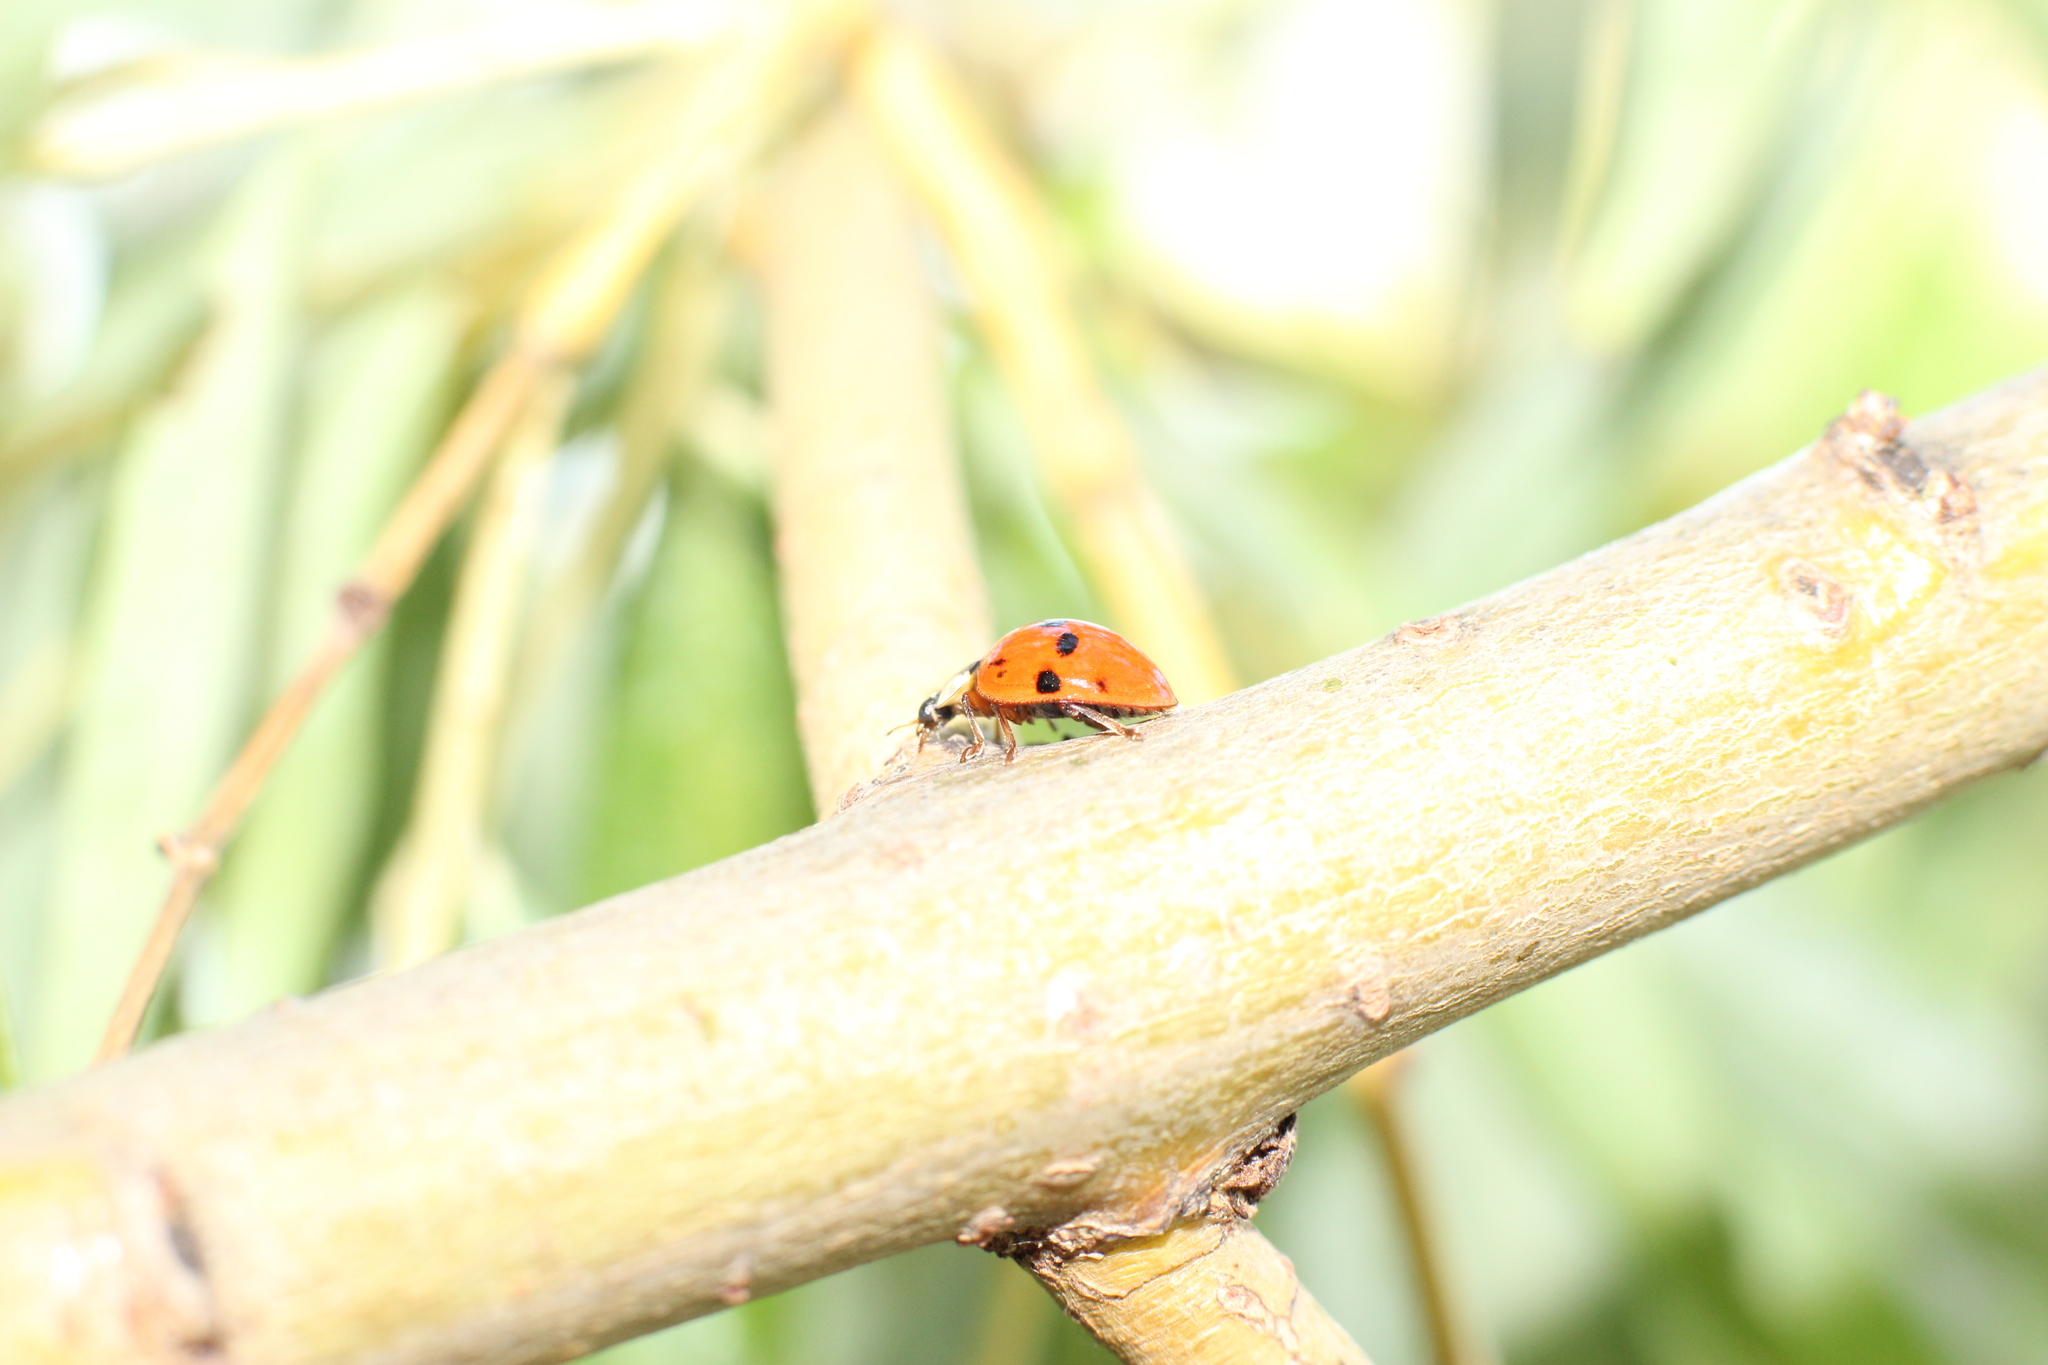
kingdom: Animalia
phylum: Arthropoda
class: Insecta
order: Coleoptera
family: Coccinellidae
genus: Harmonia
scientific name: Harmonia axyridis
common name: Harlequin ladybird
